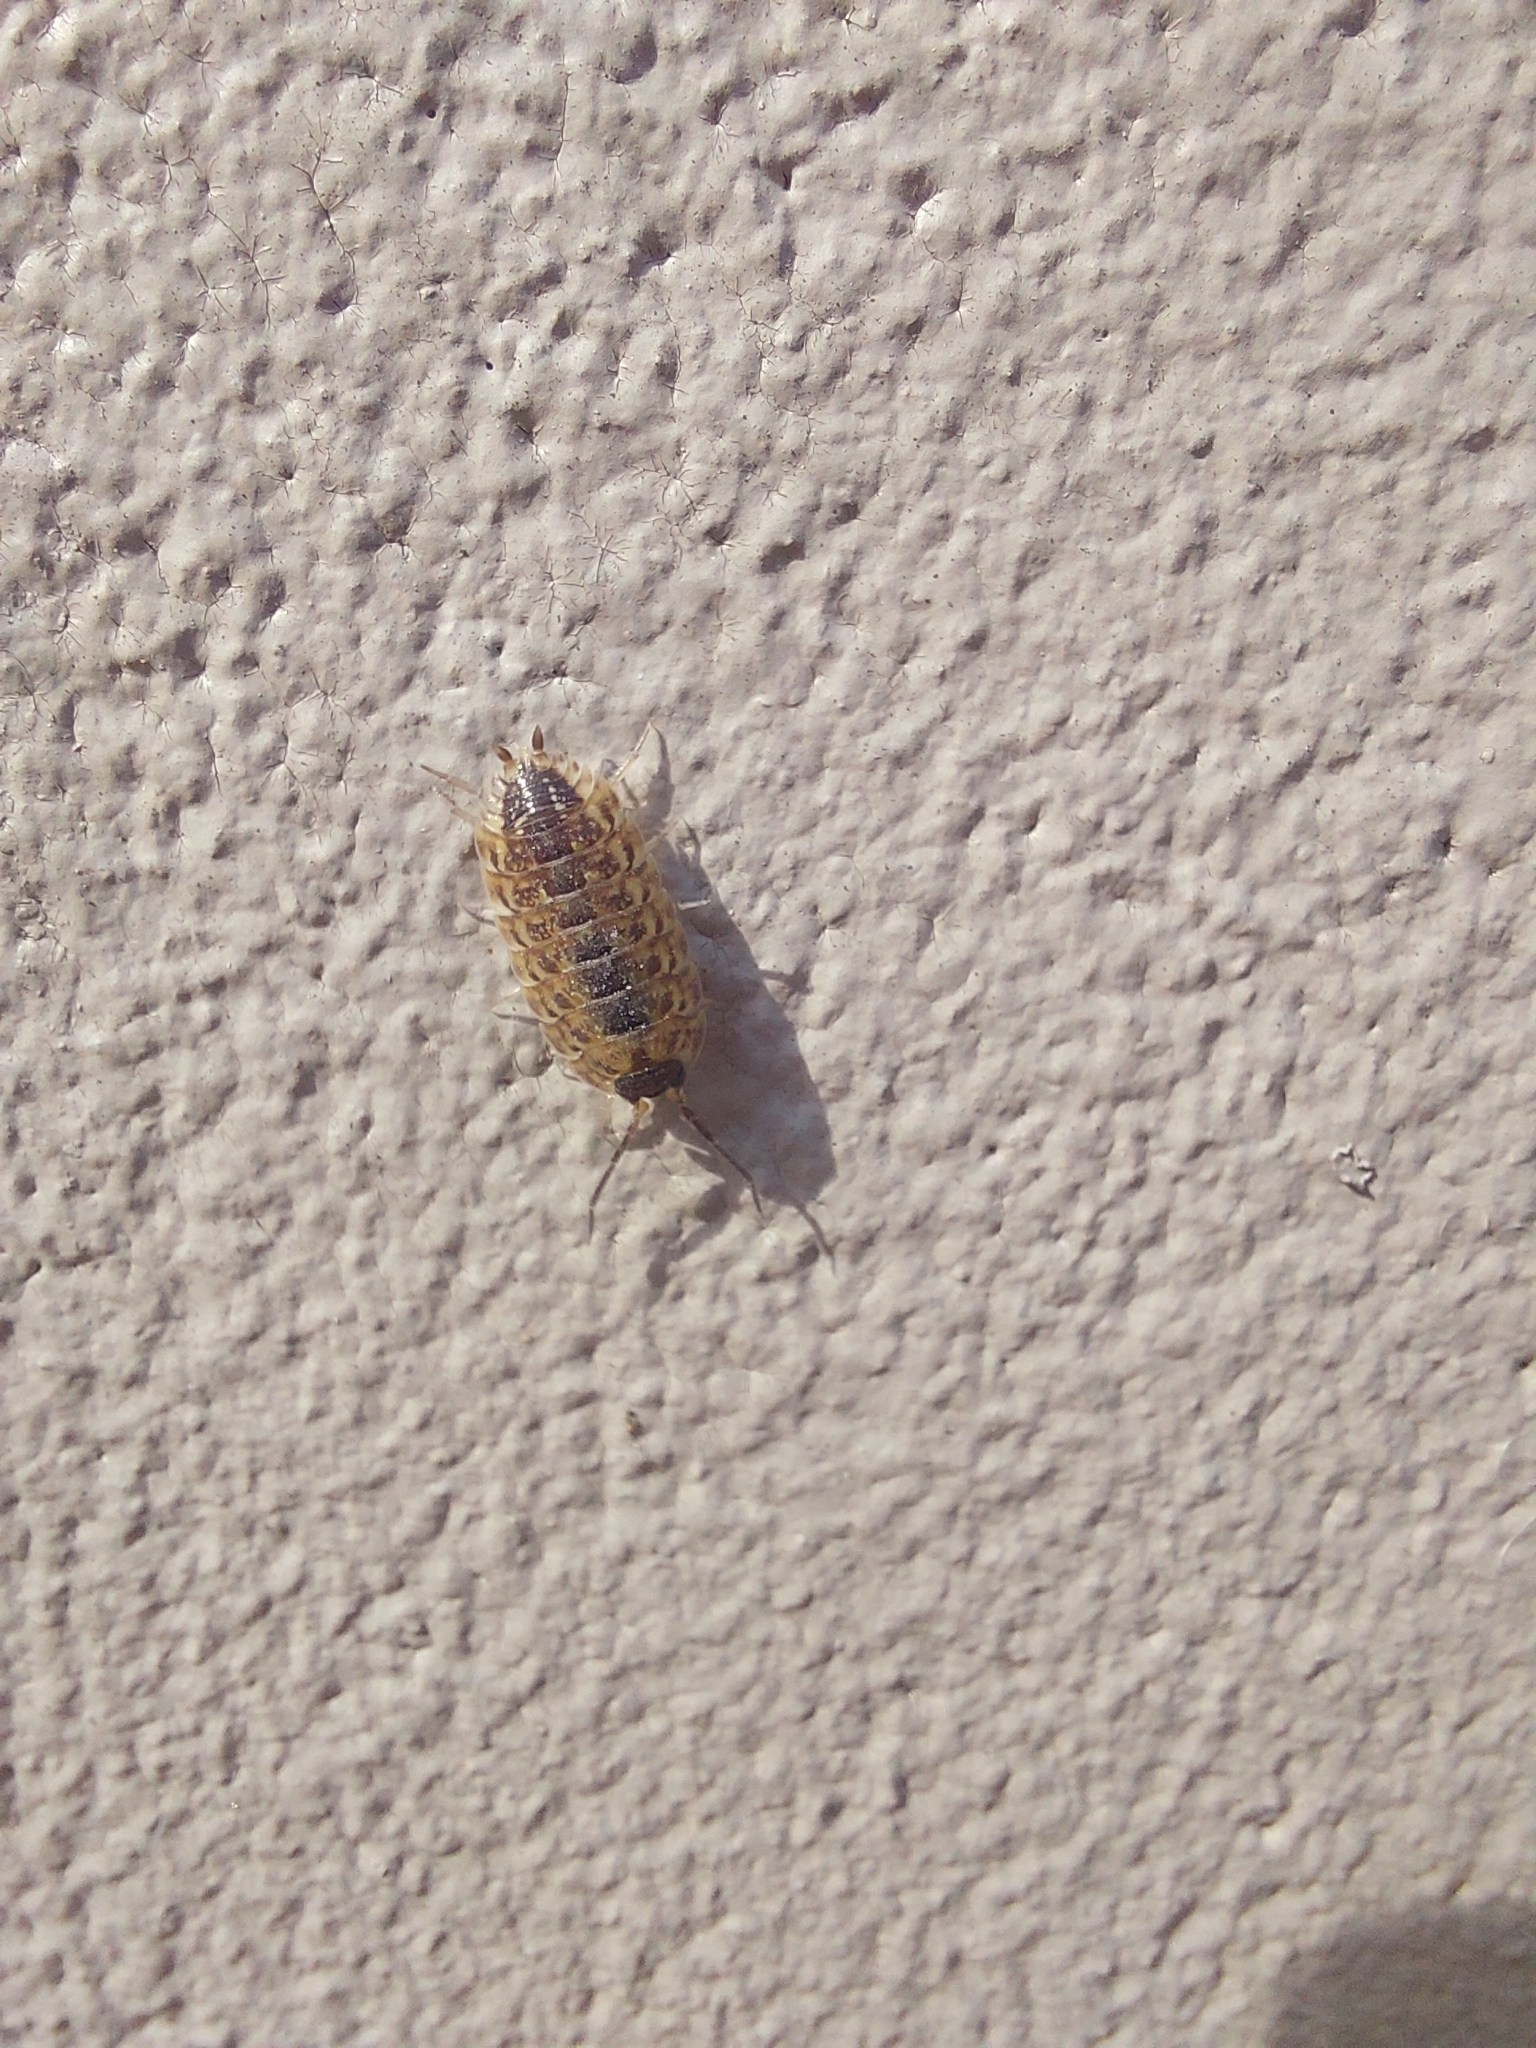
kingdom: Animalia
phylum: Arthropoda
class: Malacostraca
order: Isopoda
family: Porcellionidae
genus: Porcellio
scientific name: Porcellio spinicornis
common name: Painted woodlouse
